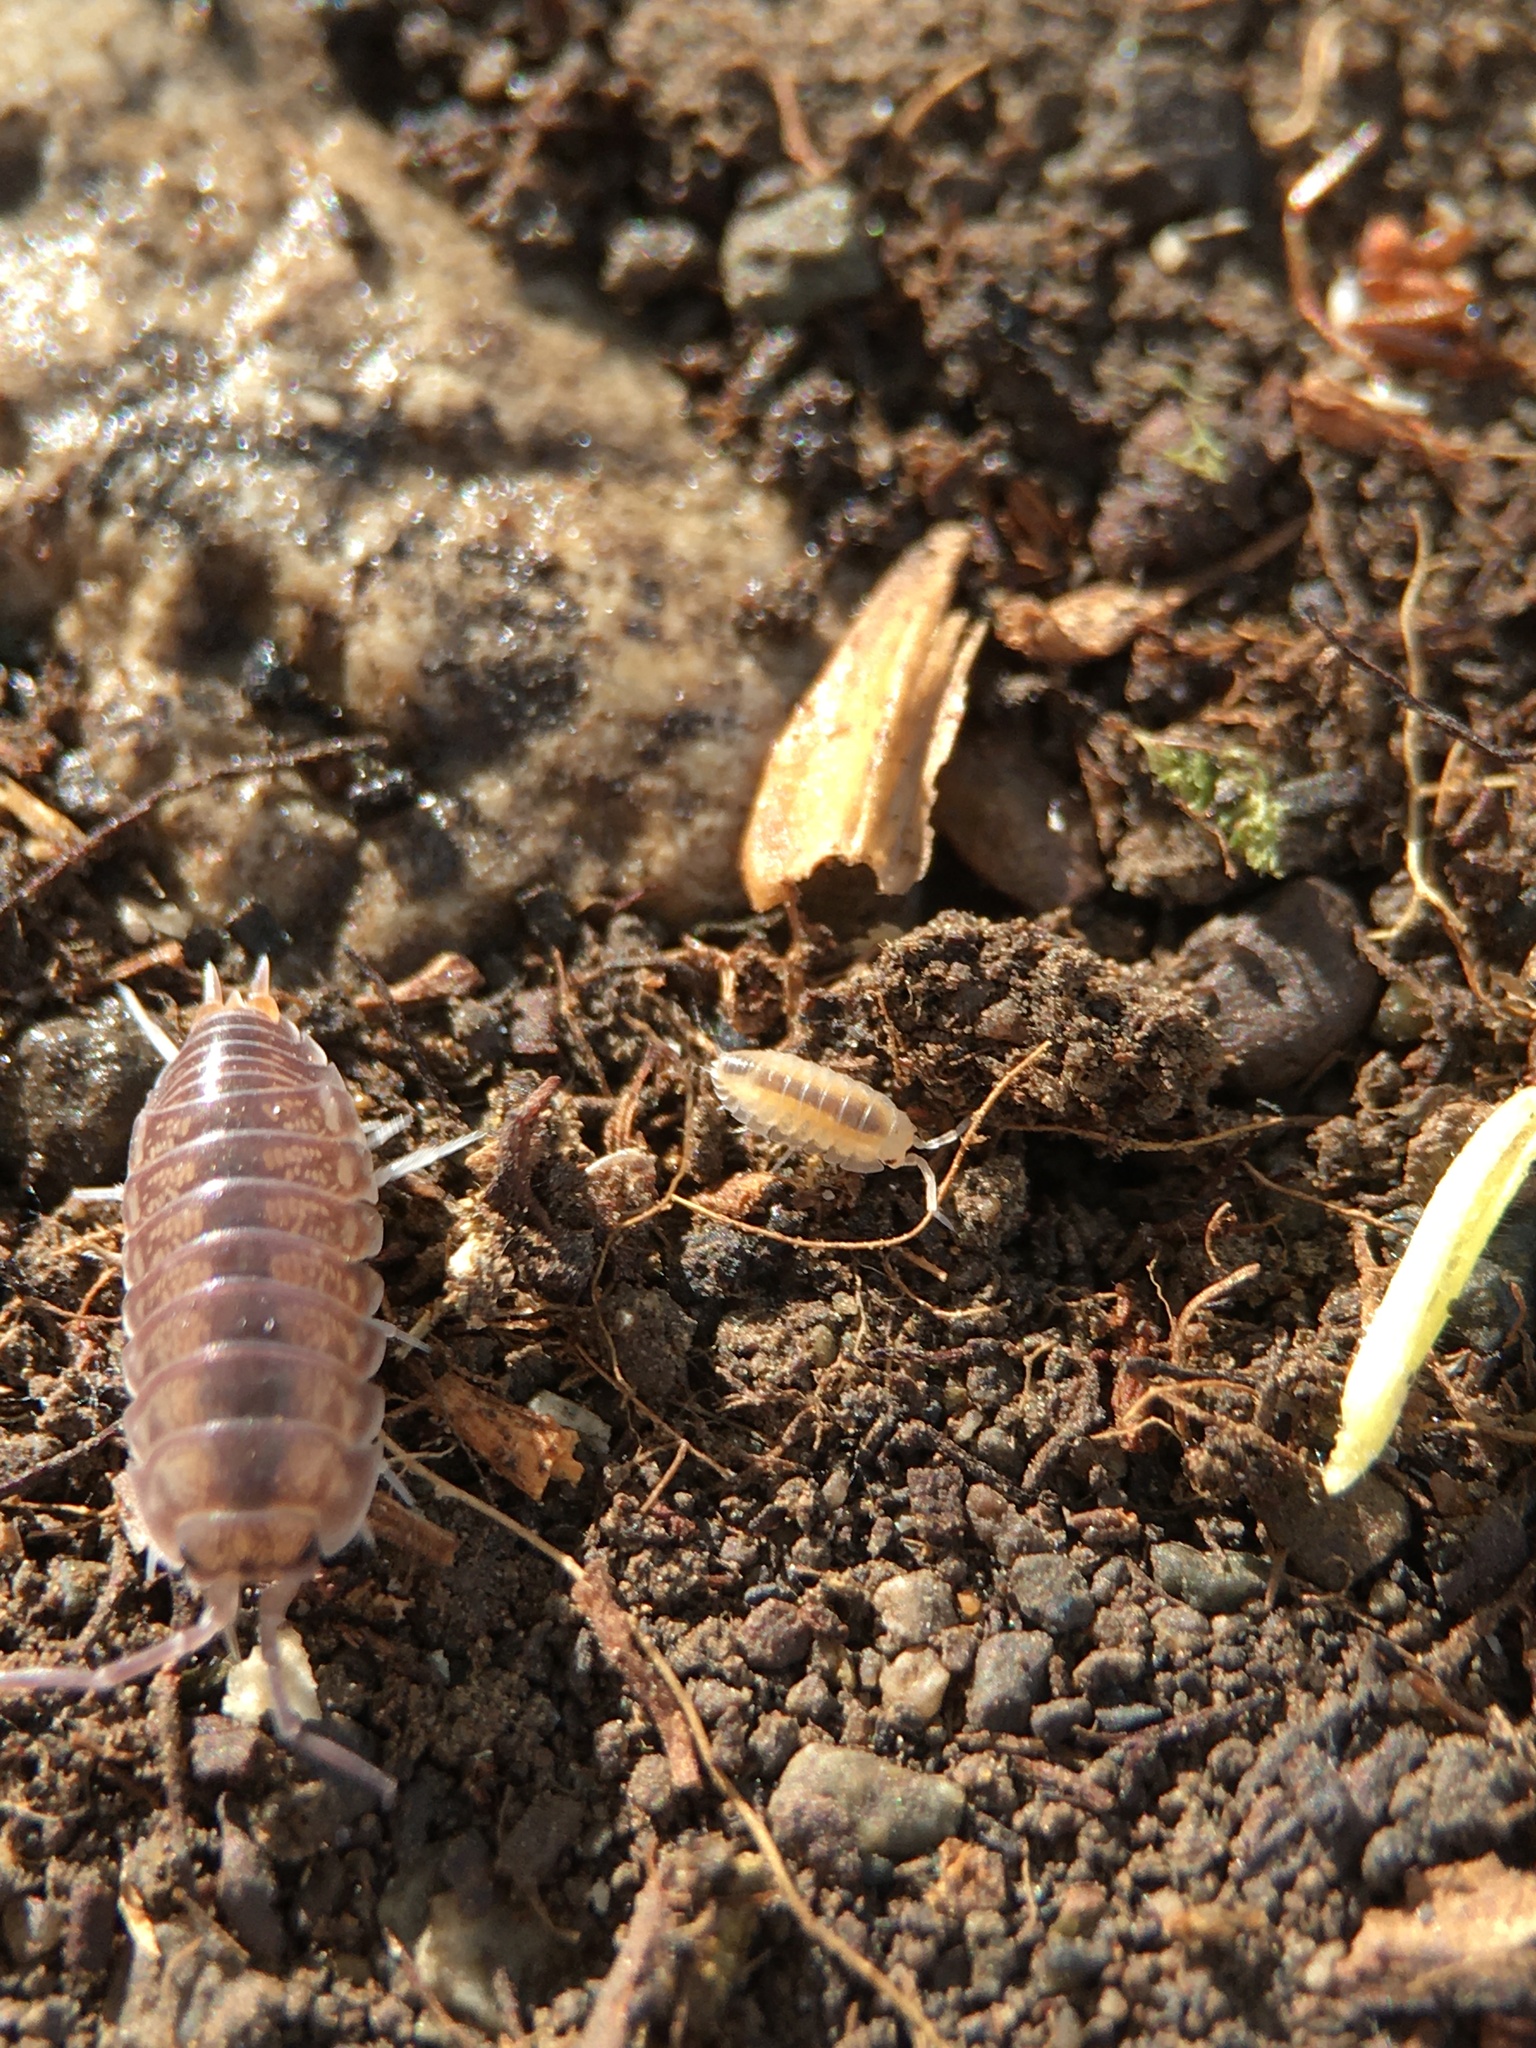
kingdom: Animalia
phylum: Arthropoda
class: Malacostraca
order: Isopoda
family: Cylisticidae
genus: Cylisticus
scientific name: Cylisticus convexus
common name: Curly woodlouse
